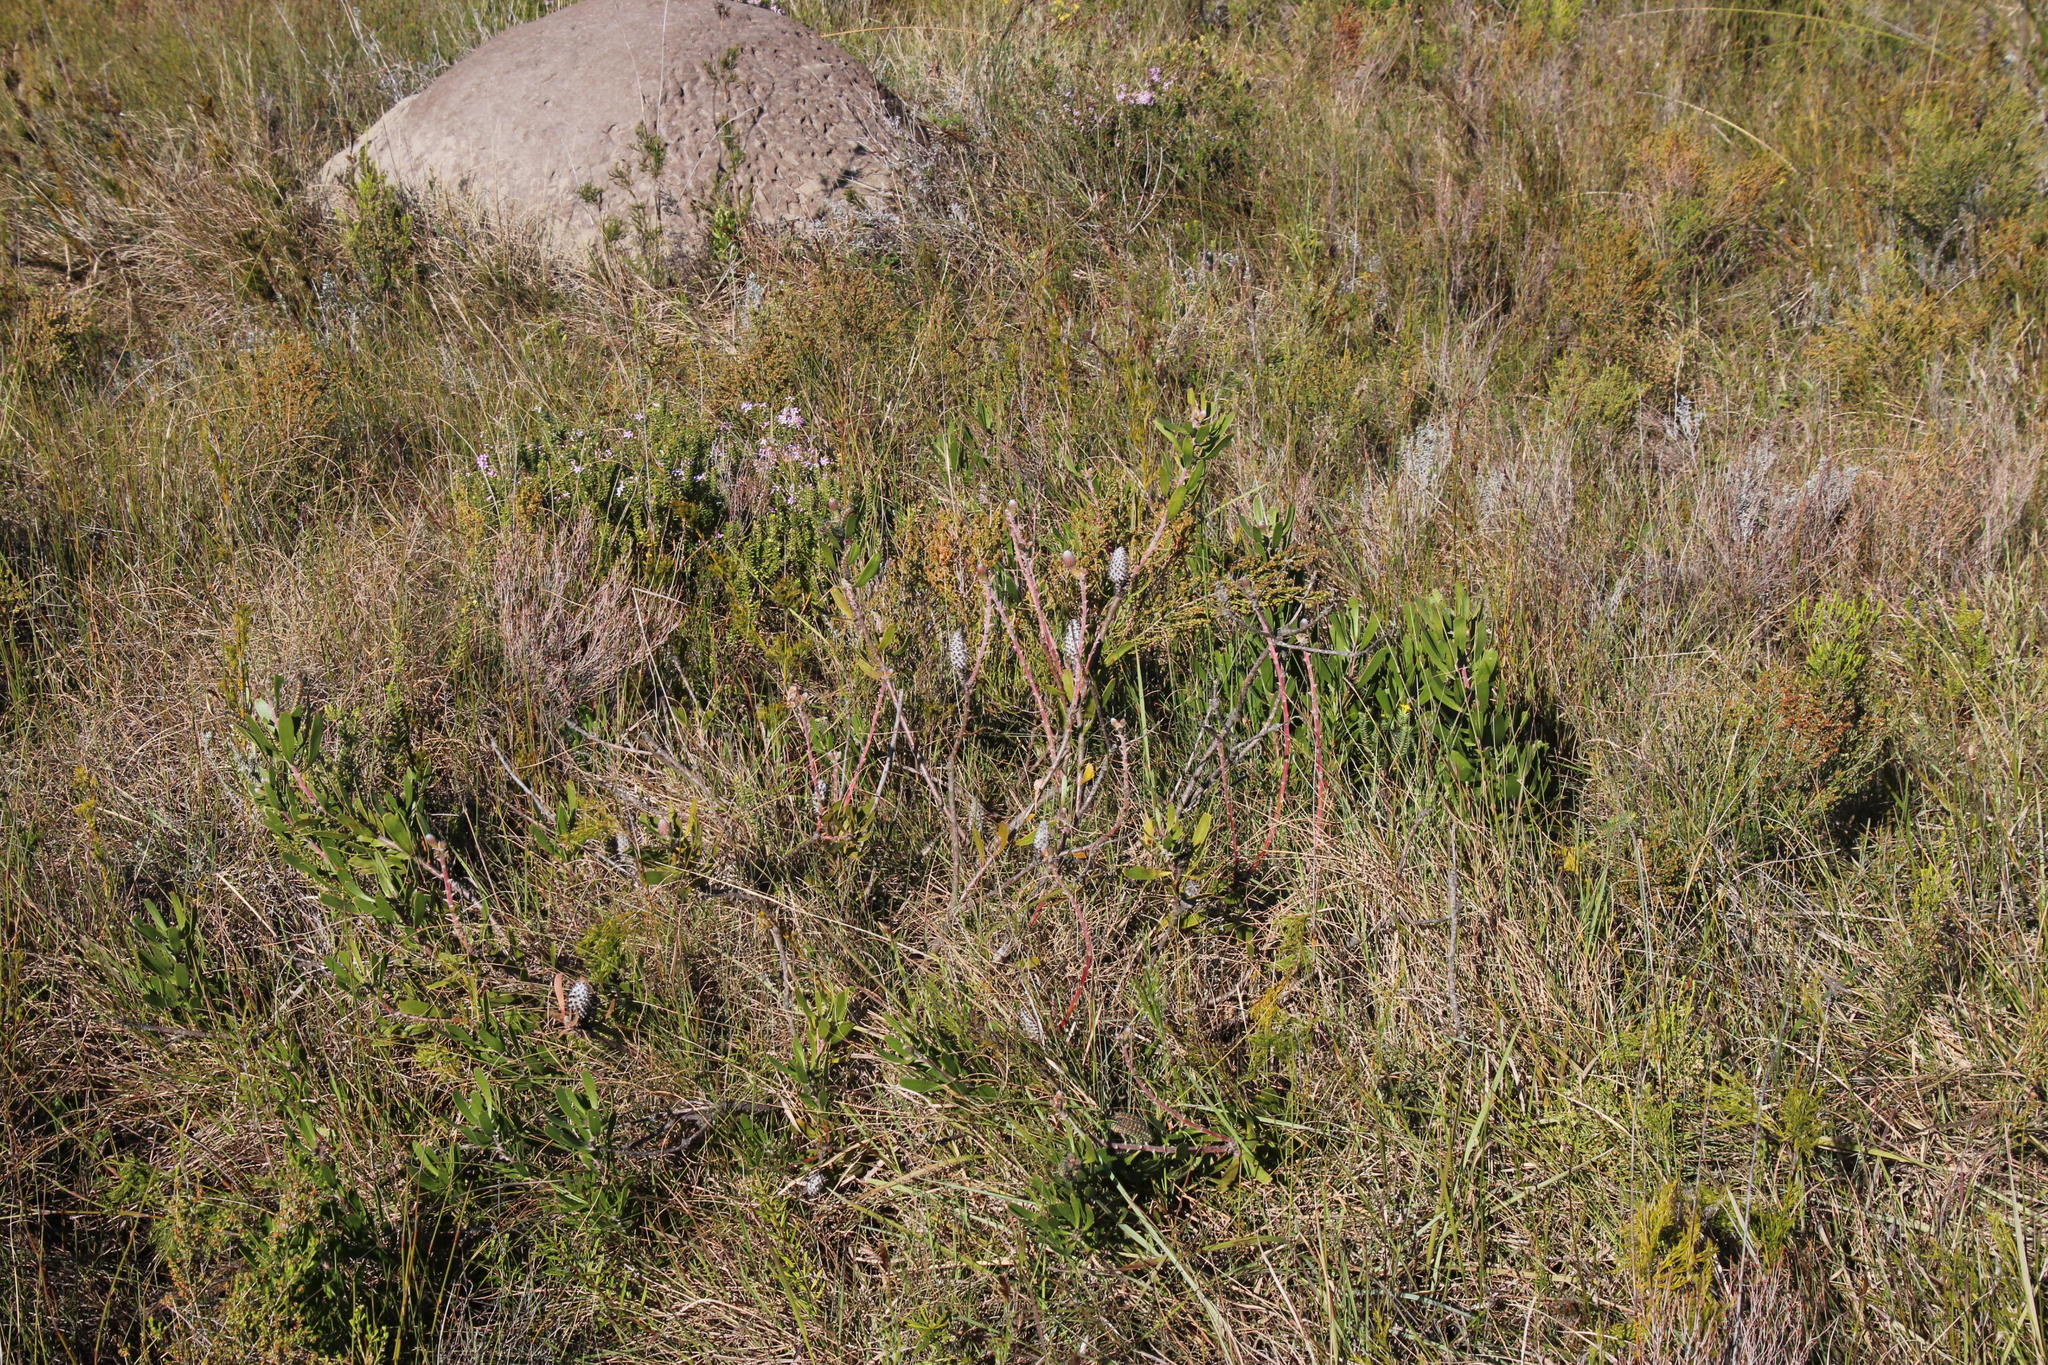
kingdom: Plantae
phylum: Tracheophyta
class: Magnoliopsida
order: Proteales
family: Proteaceae
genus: Leucospermum
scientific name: Leucospermum cuneiforme
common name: Common pincushion
